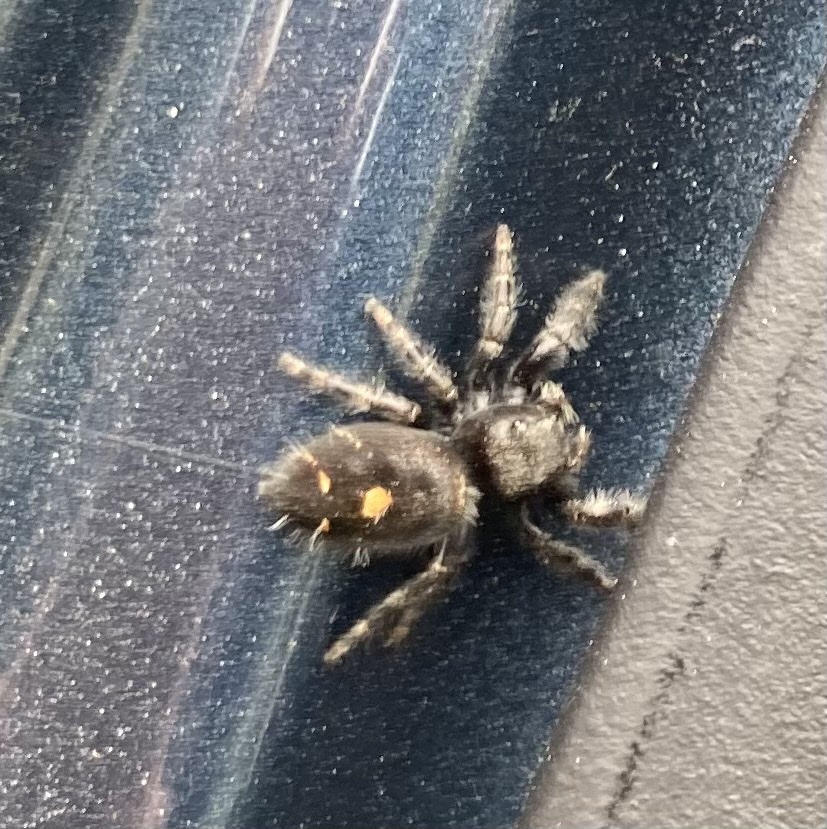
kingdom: Animalia
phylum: Arthropoda
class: Arachnida
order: Araneae
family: Salticidae
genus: Phidippus
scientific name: Phidippus audax
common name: Bold jumper
